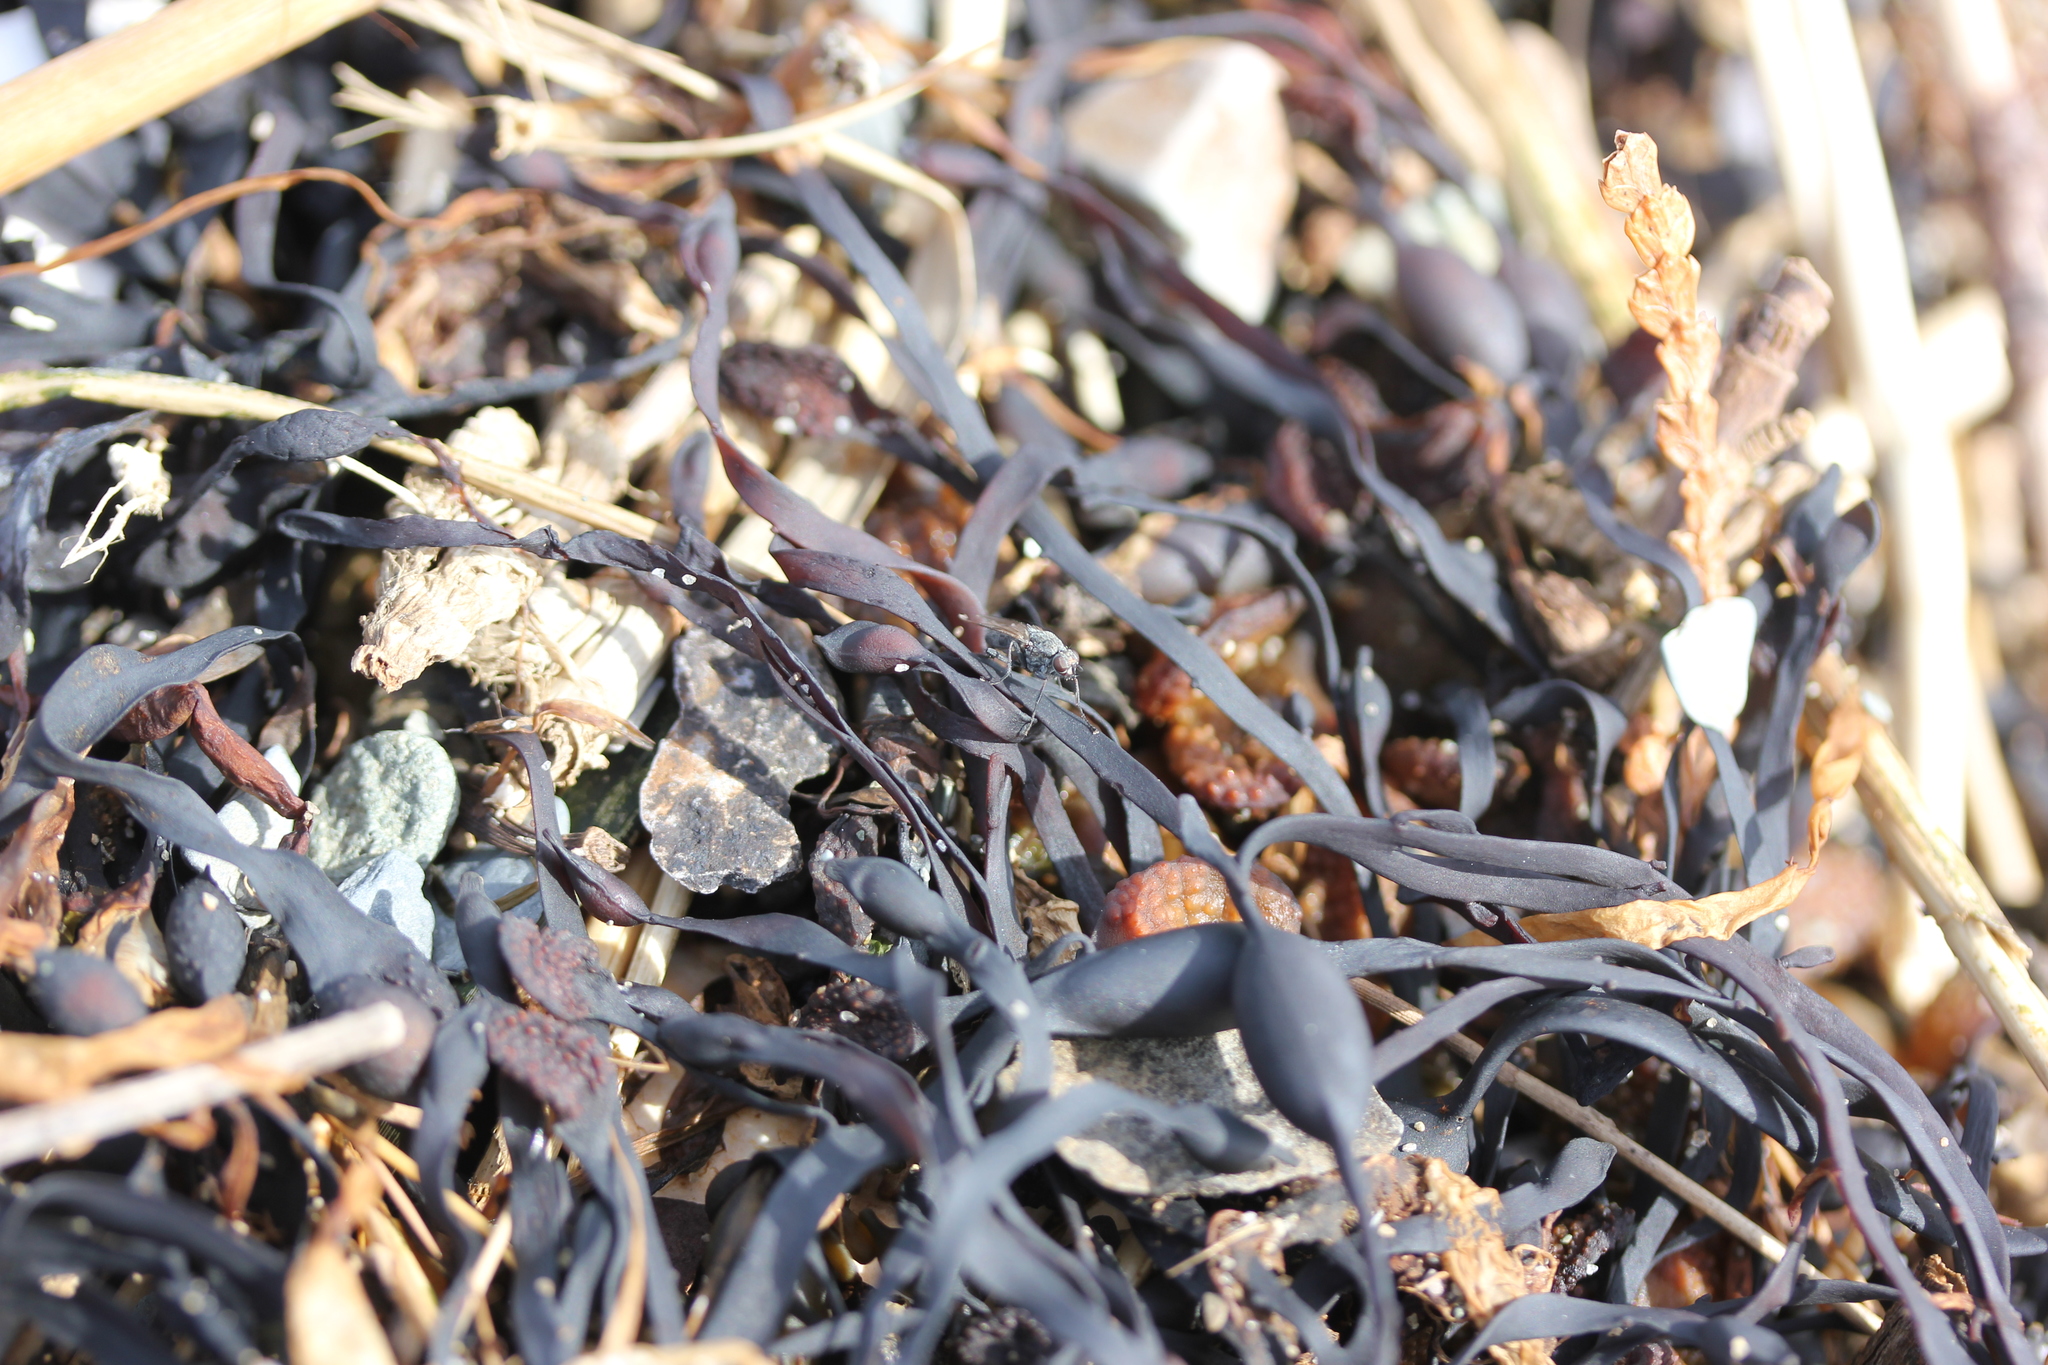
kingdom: Chromista
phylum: Ochrophyta
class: Phaeophyceae
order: Fucales
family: Fucaceae
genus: Ascophyllum
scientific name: Ascophyllum nodosum
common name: Knotted wrack
